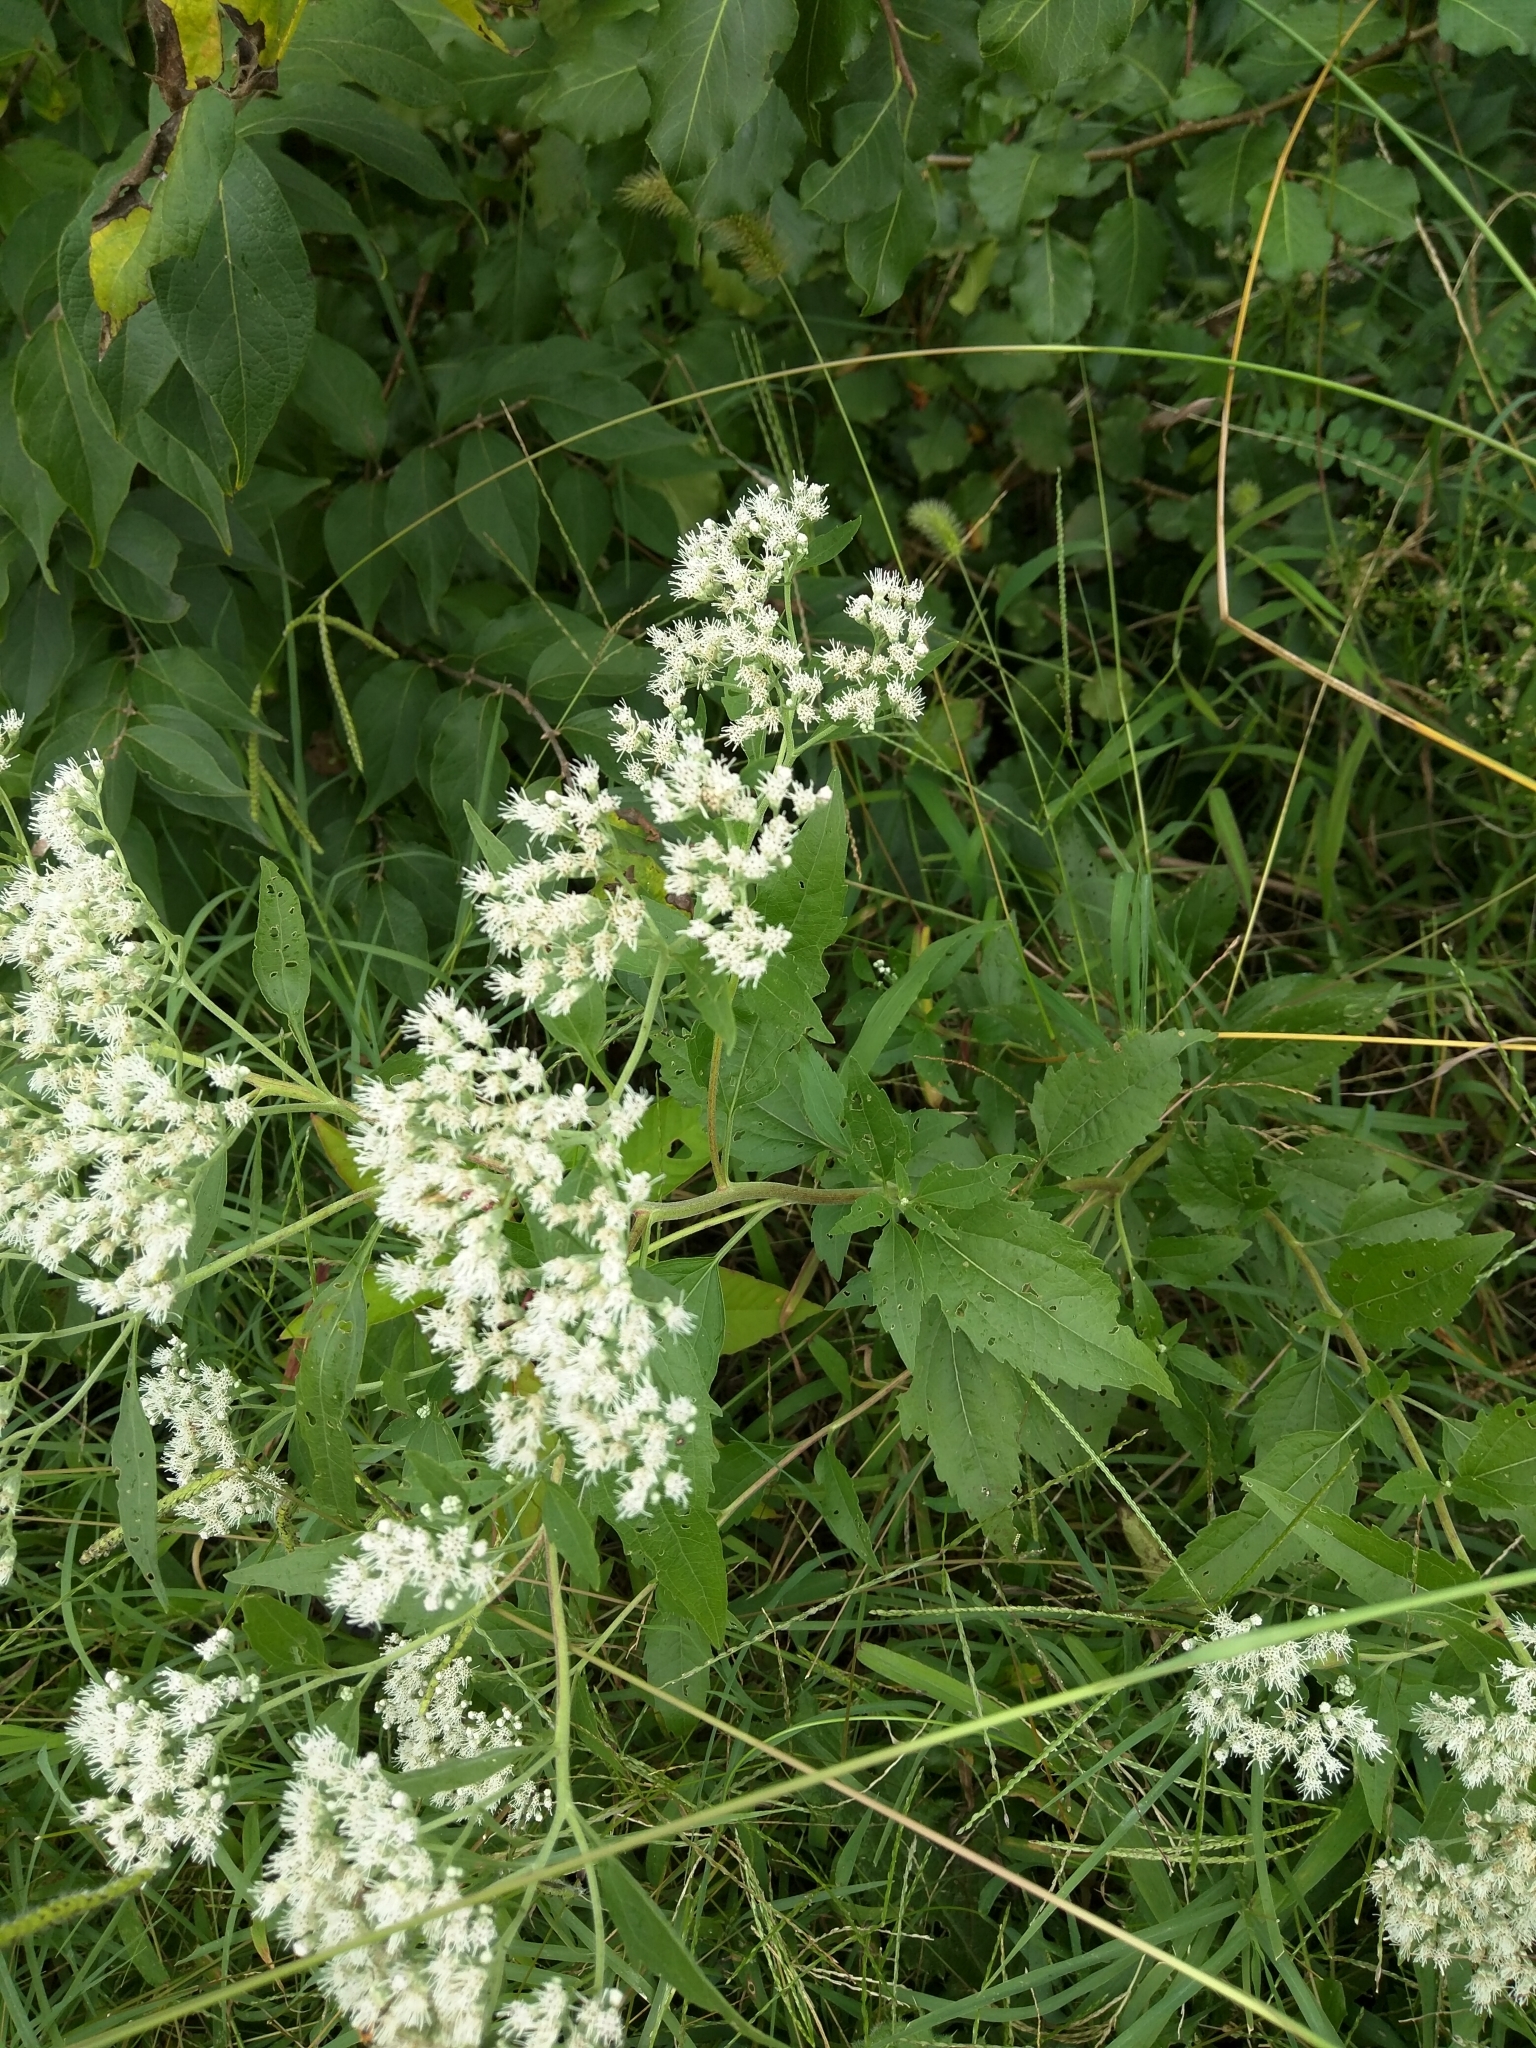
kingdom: Plantae
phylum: Tracheophyta
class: Magnoliopsida
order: Asterales
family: Asteraceae
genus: Eupatorium
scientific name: Eupatorium serotinum
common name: Late boneset
